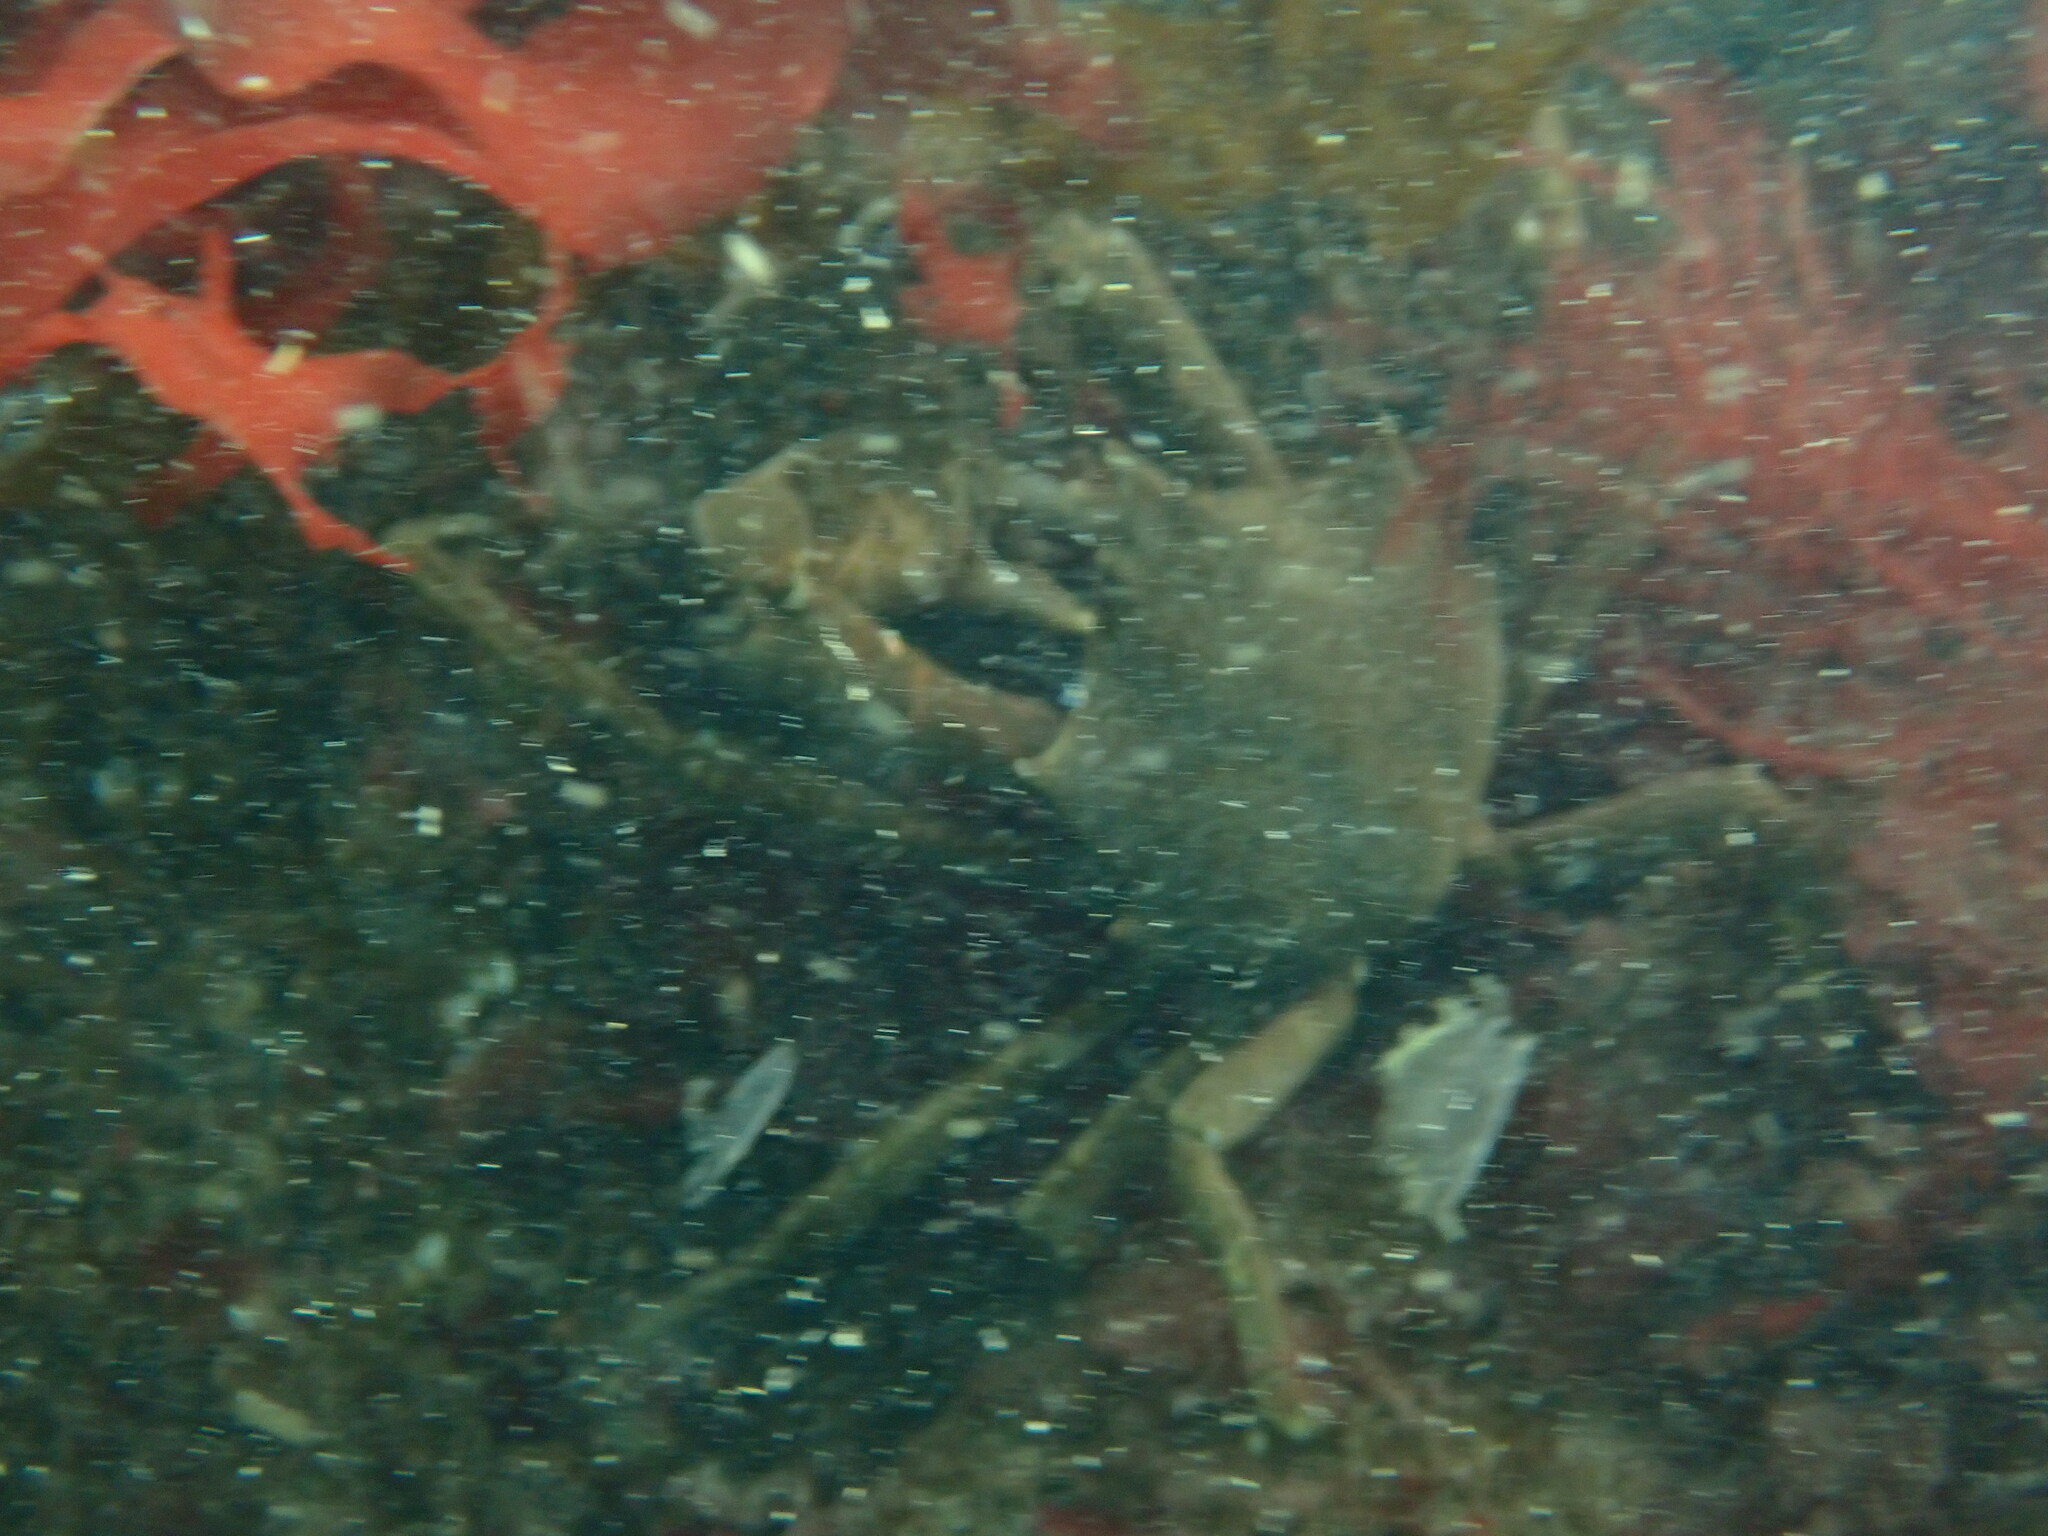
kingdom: Animalia
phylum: Arthropoda
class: Malacostraca
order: Decapoda
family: Epialtidae
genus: Pugettia
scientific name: Pugettia producta
